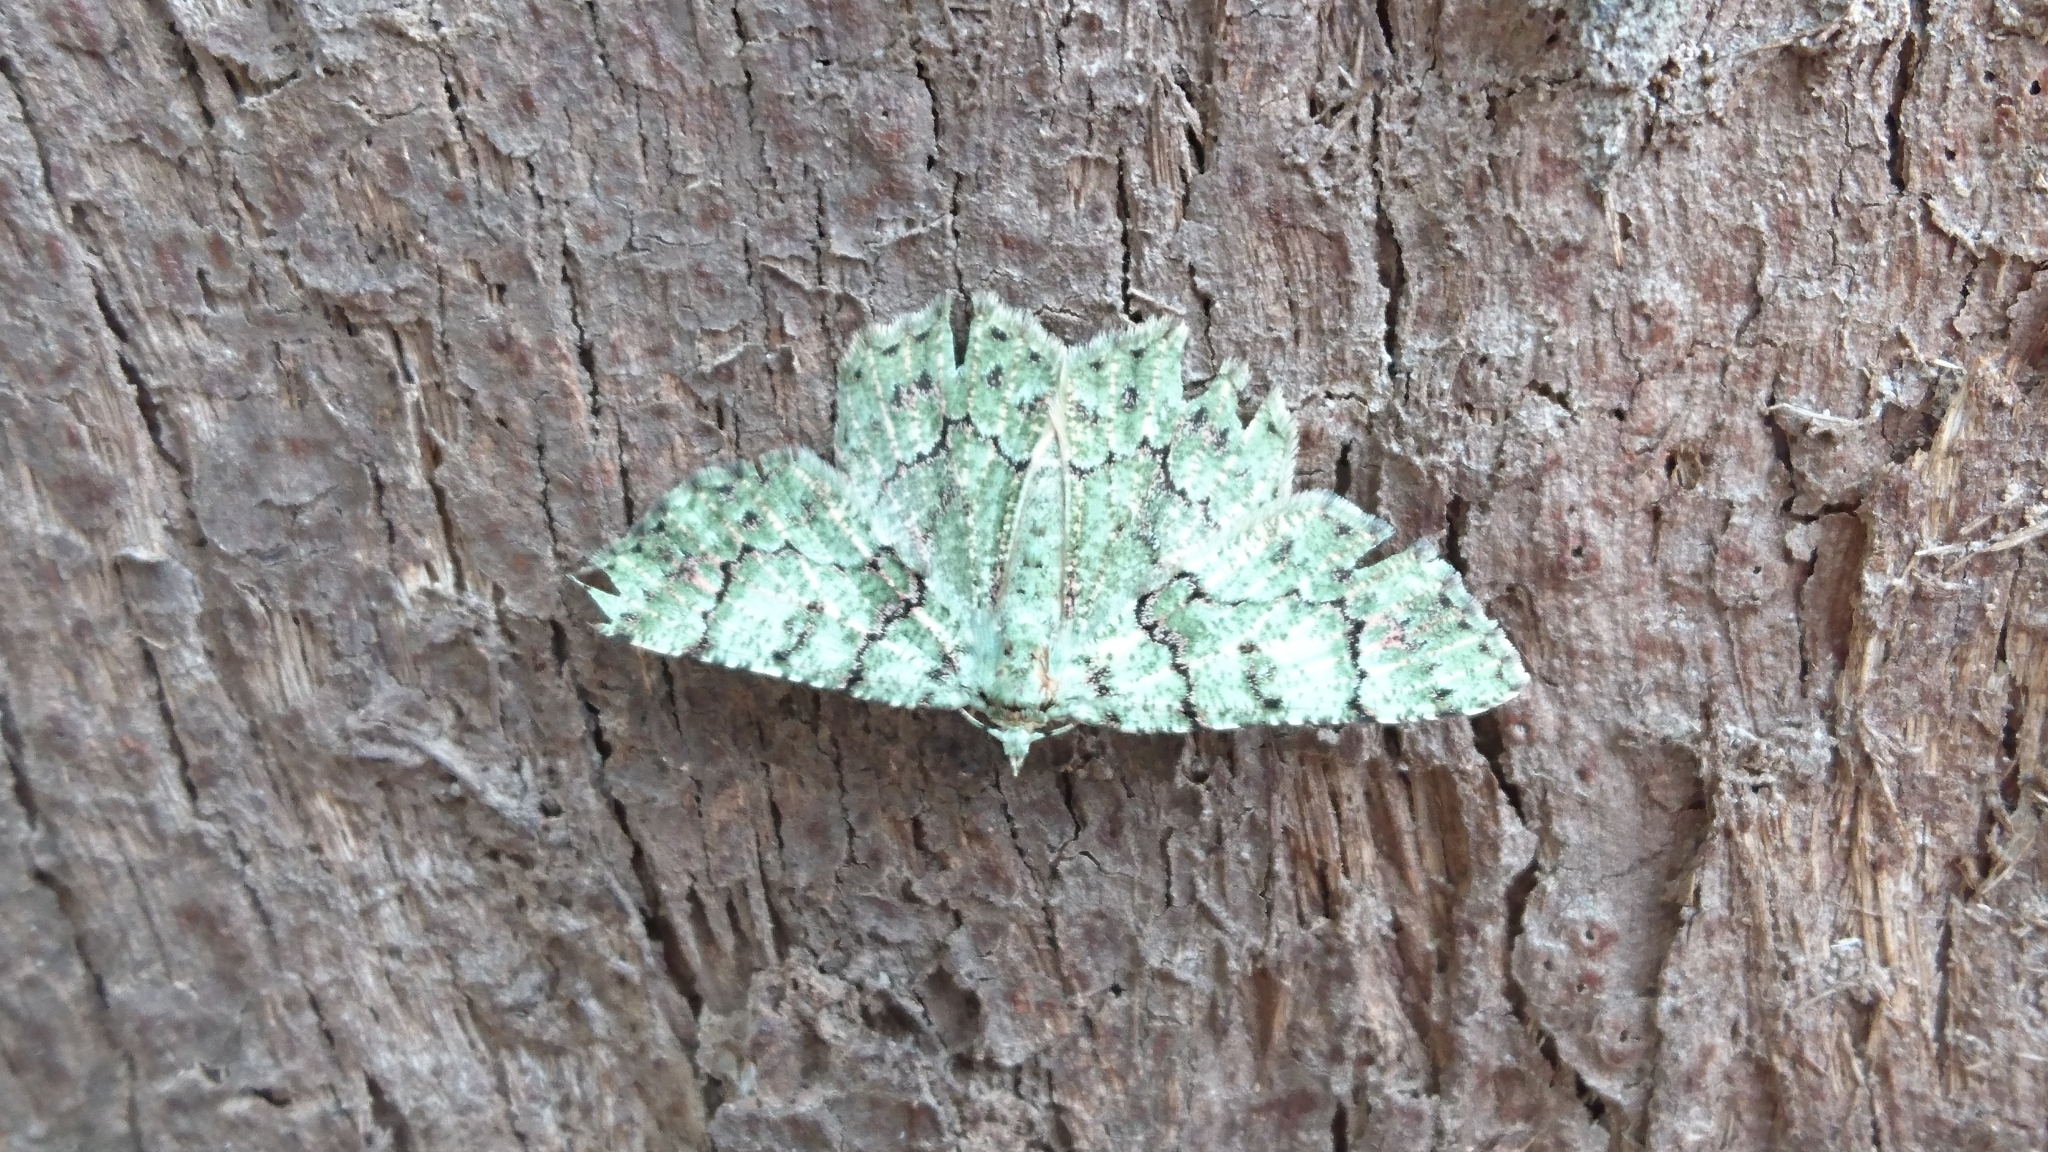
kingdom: Animalia
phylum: Arthropoda
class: Insecta
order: Lepidoptera
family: Geometridae
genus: Aeolochroma
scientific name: Aeolochroma hypochromaria
